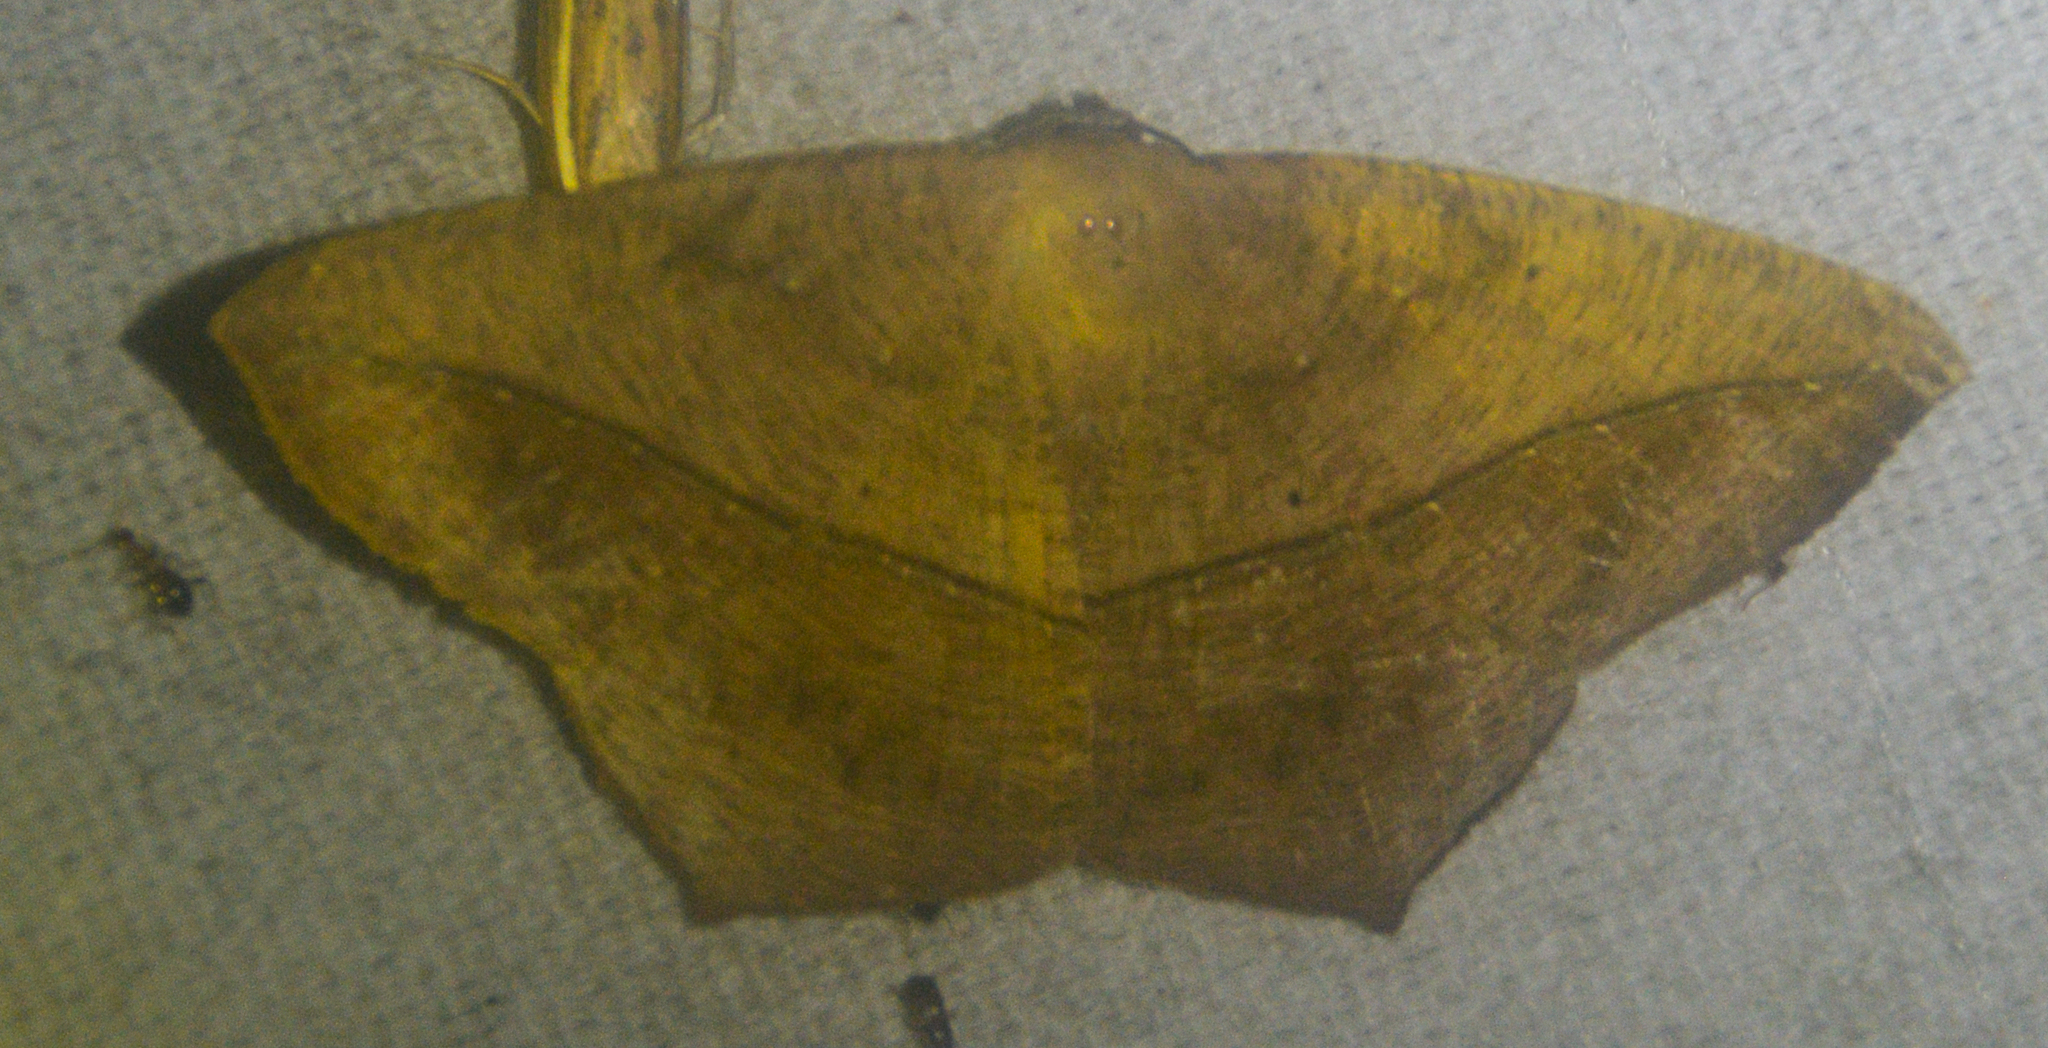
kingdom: Animalia
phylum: Arthropoda
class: Insecta
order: Lepidoptera
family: Geometridae
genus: Prochoerodes
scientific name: Prochoerodes lineola
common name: Large maple spanworm
